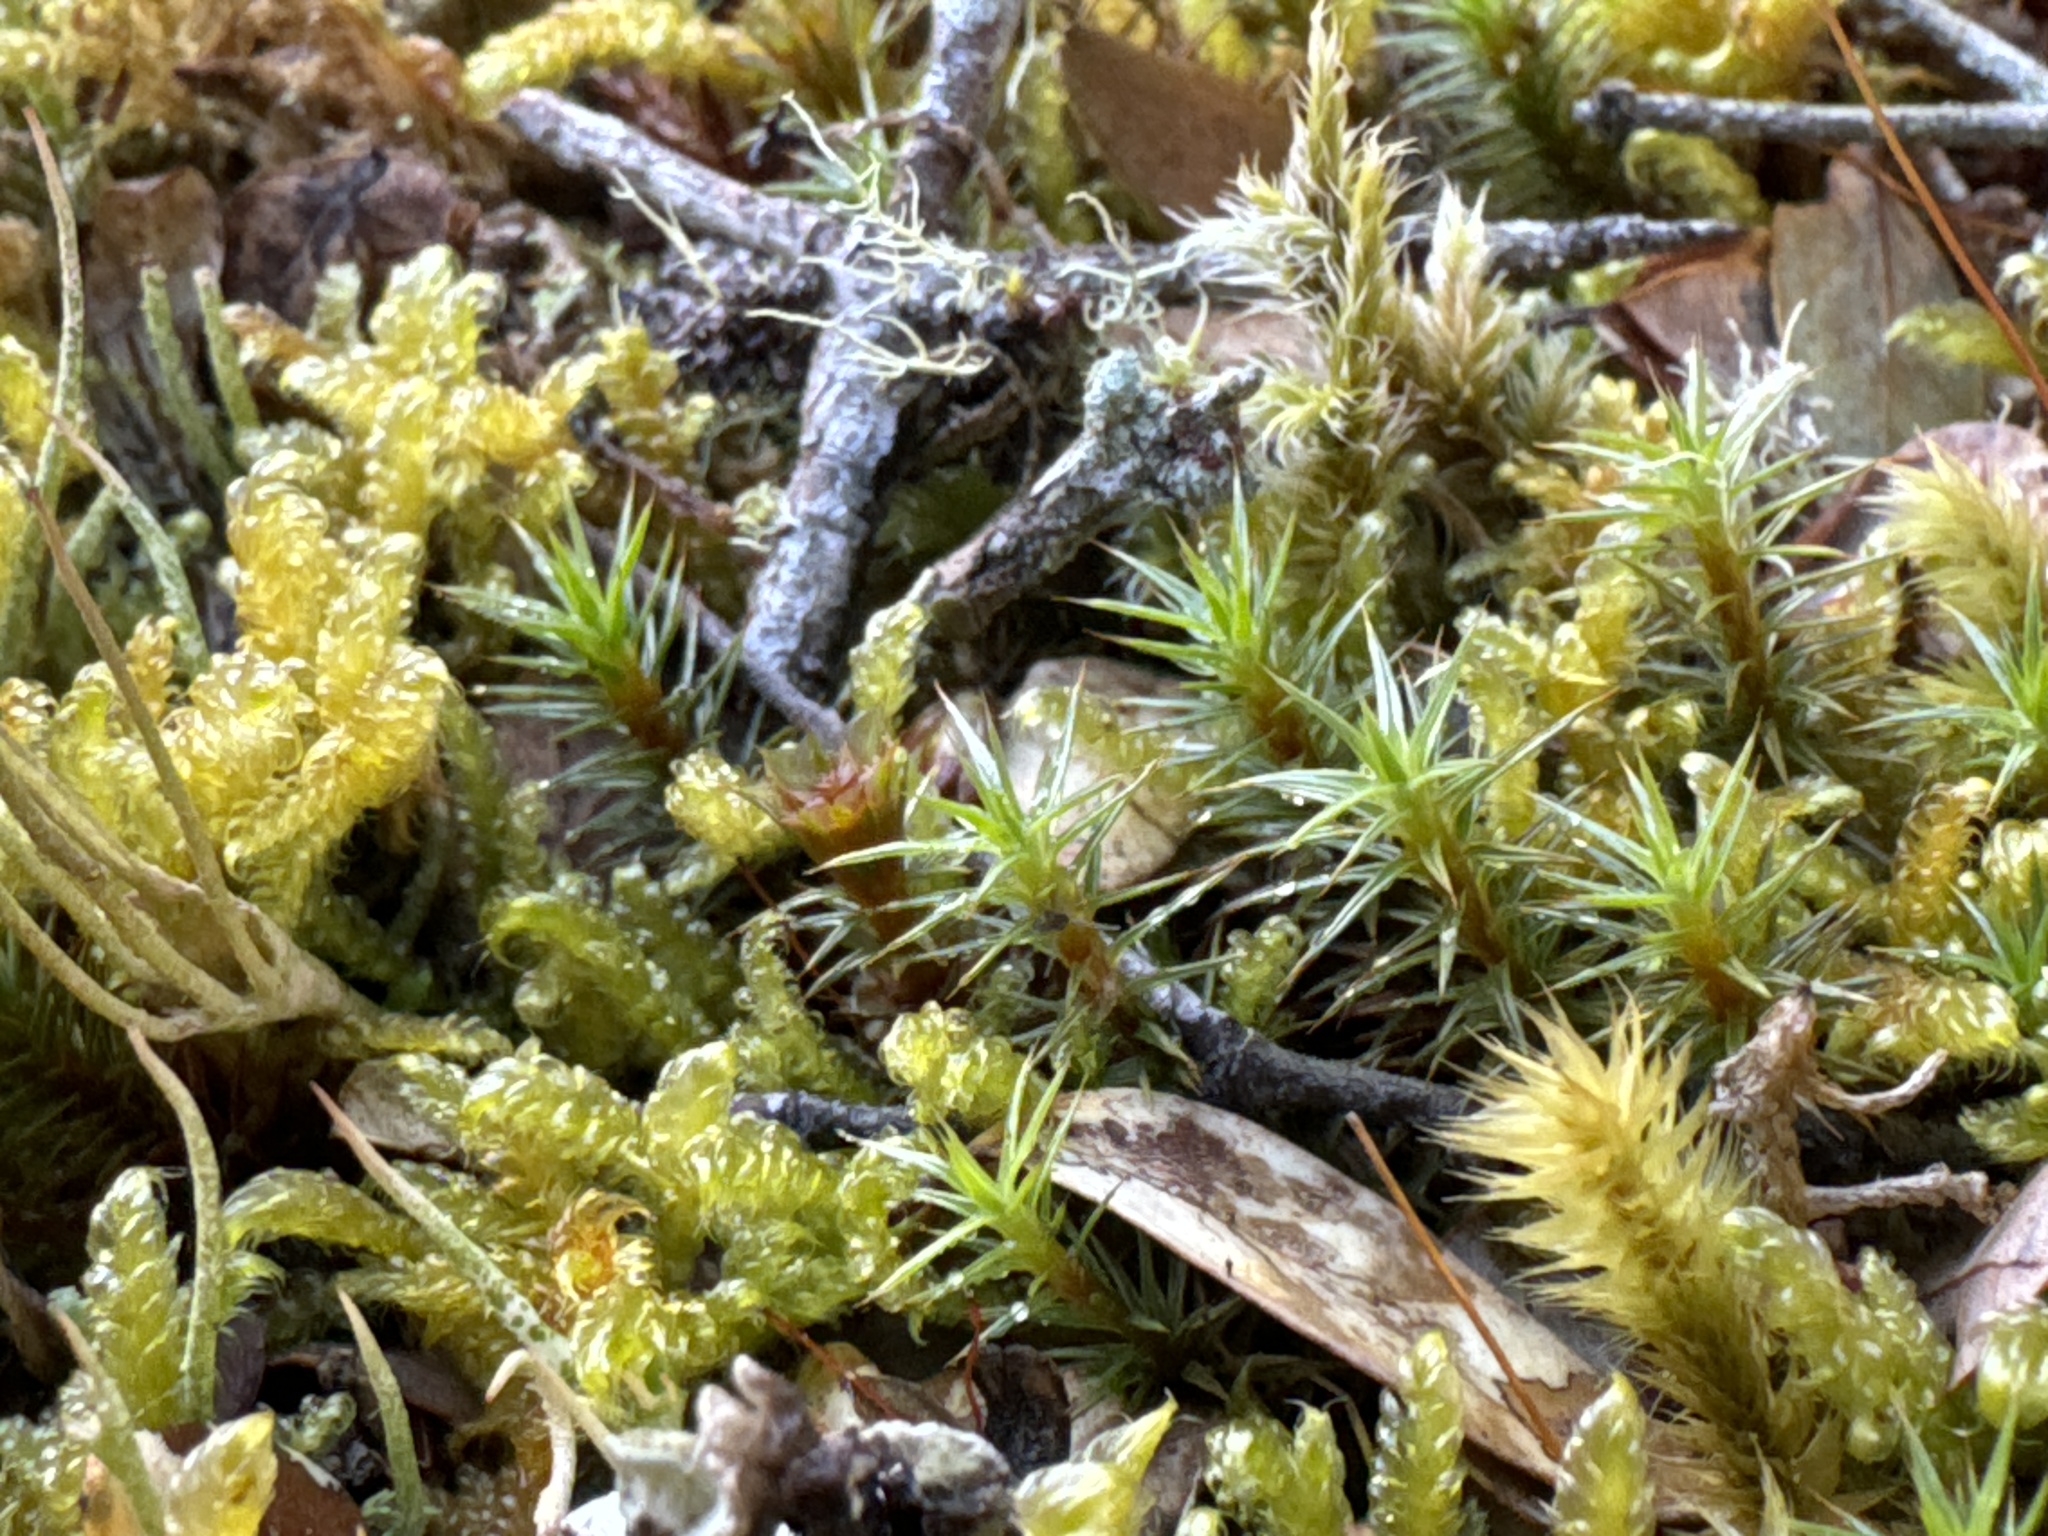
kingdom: Plantae
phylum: Bryophyta
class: Polytrichopsida
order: Polytrichales
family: Polytrichaceae
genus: Polytrichum
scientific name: Polytrichum juniperinum
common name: Juniper haircap moss
